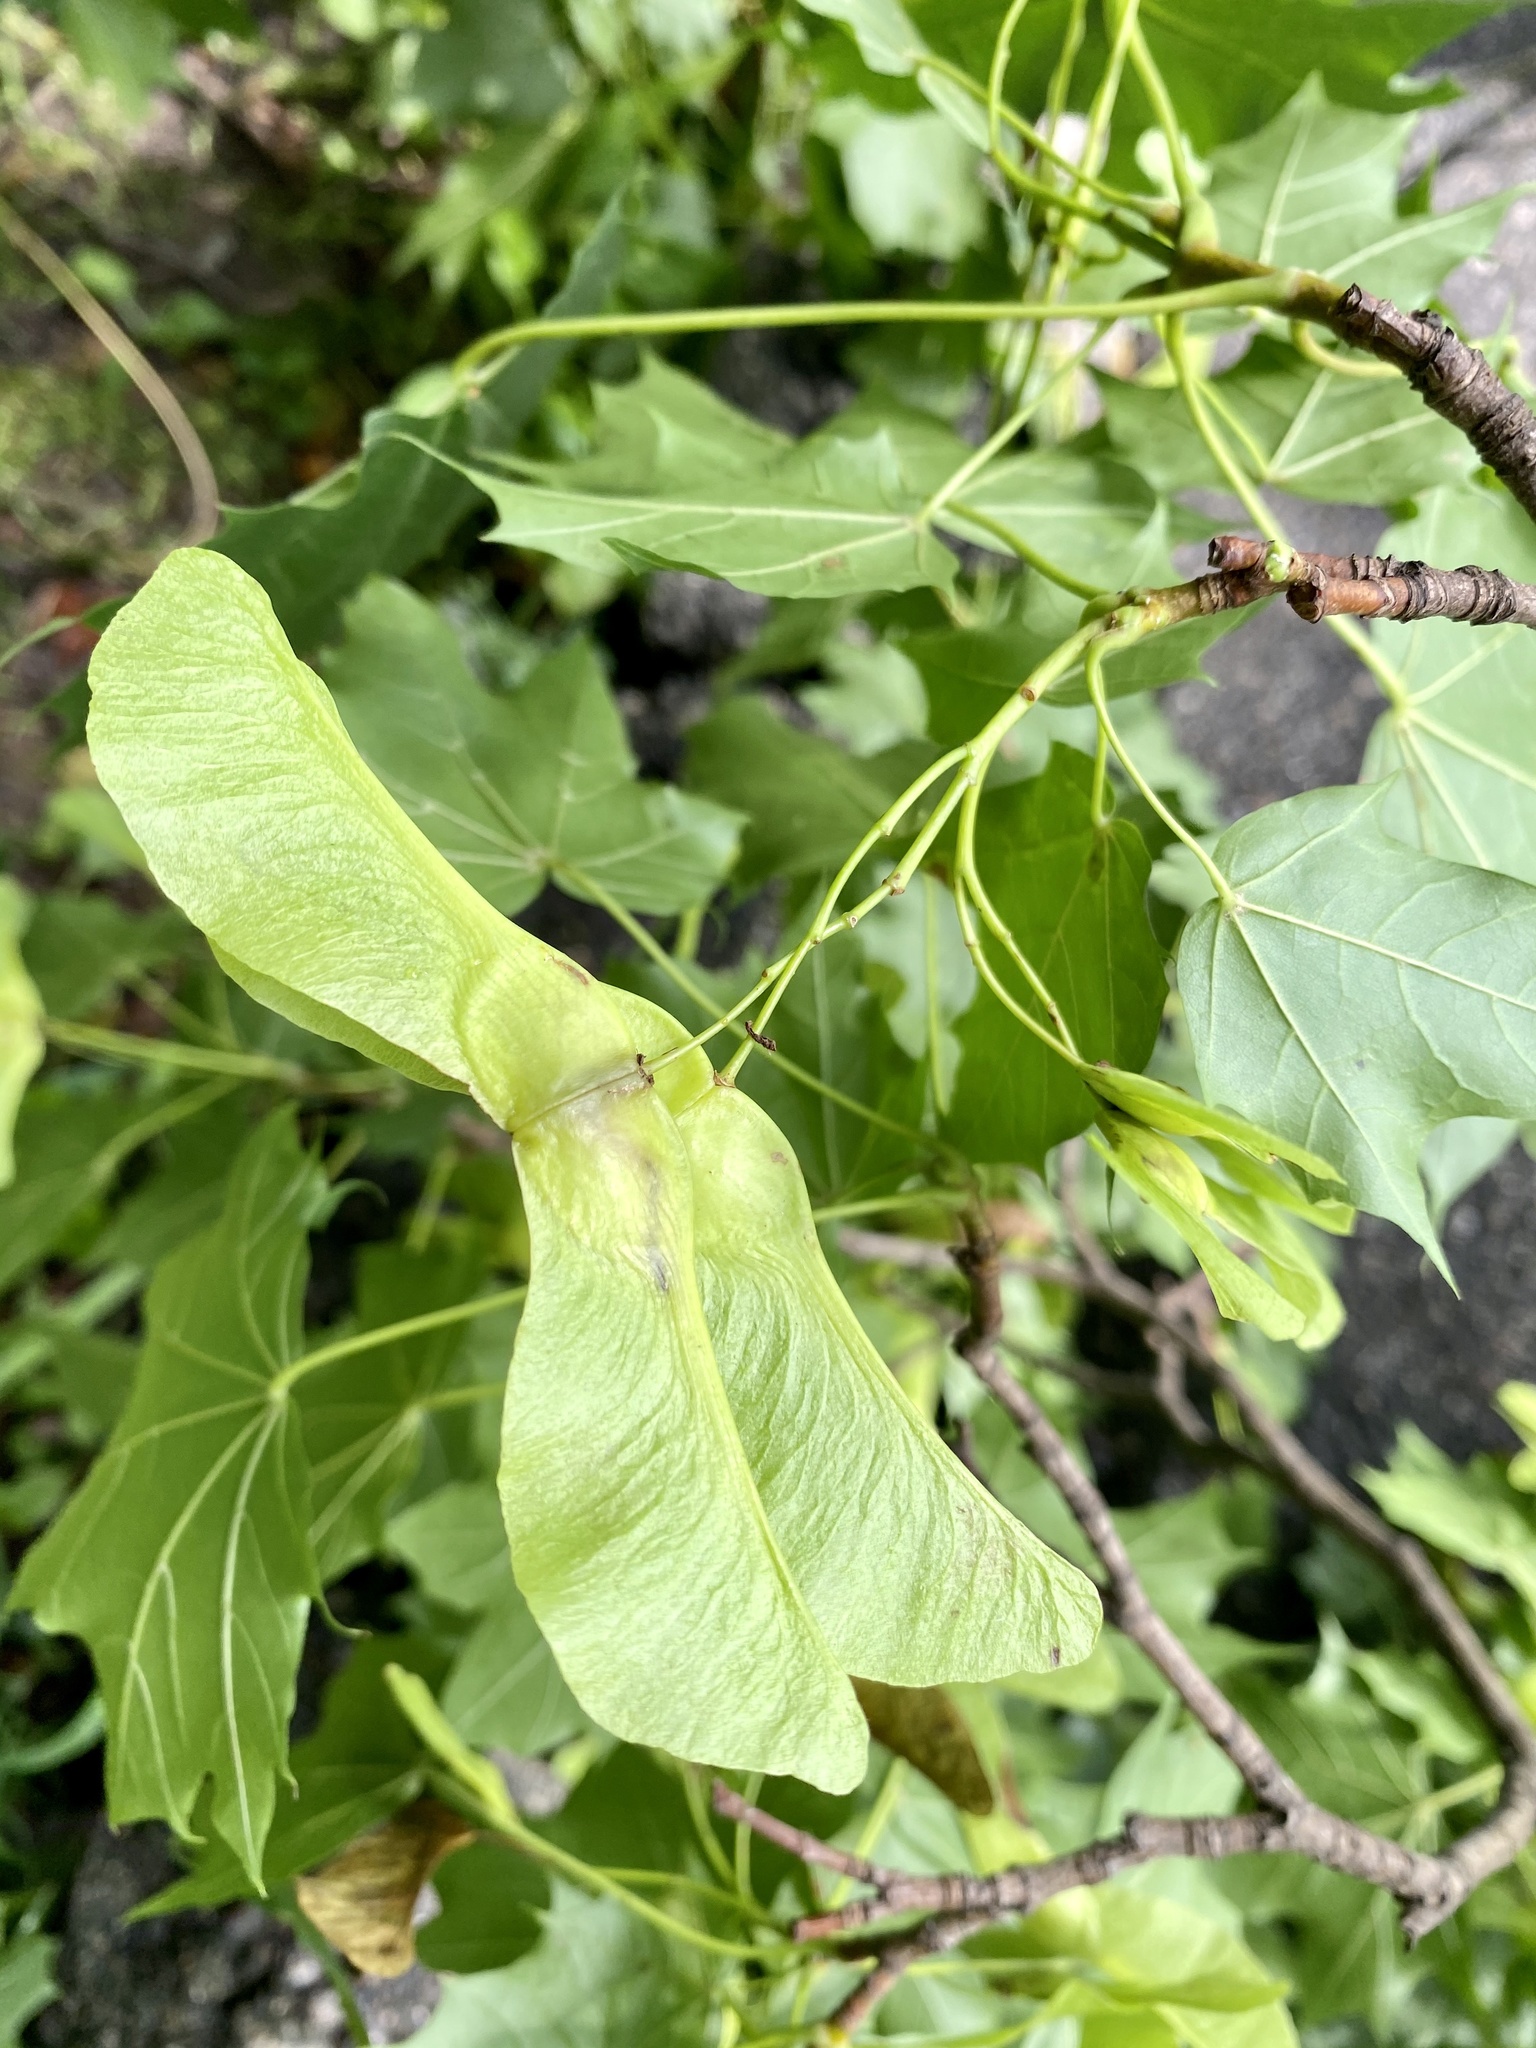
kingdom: Plantae
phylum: Tracheophyta
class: Magnoliopsida
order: Sapindales
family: Sapindaceae
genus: Acer
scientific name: Acer platanoides
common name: Norway maple
